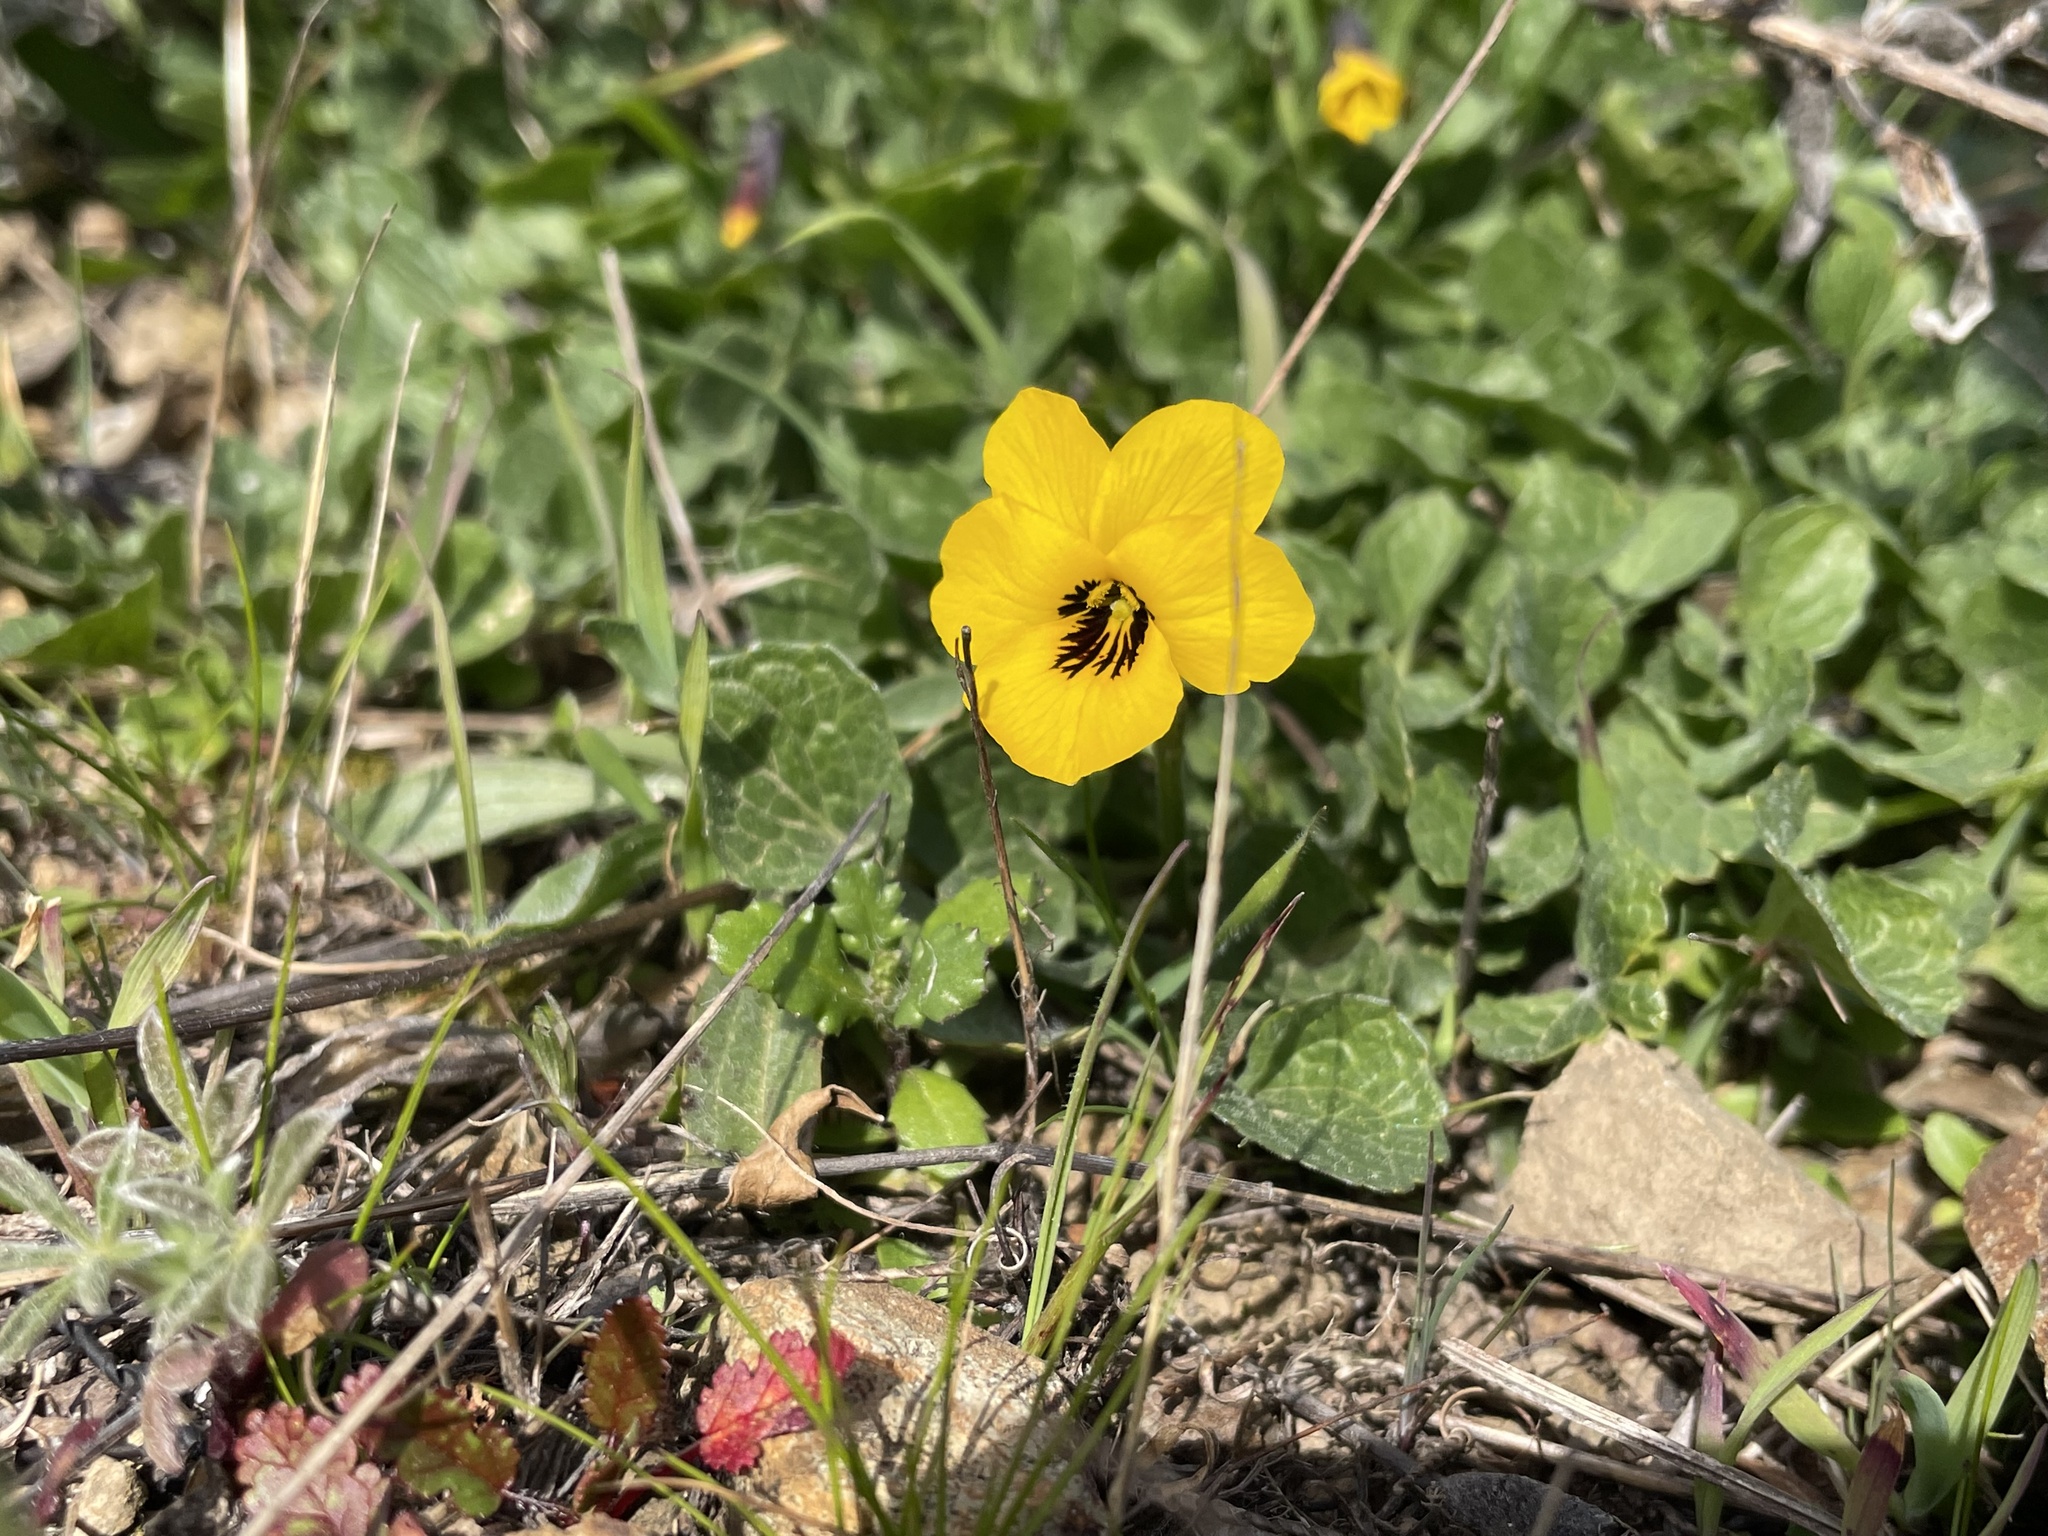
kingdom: Plantae
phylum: Tracheophyta
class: Magnoliopsida
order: Malpighiales
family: Violaceae
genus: Viola
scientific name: Viola pedunculata
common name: California golden violet
